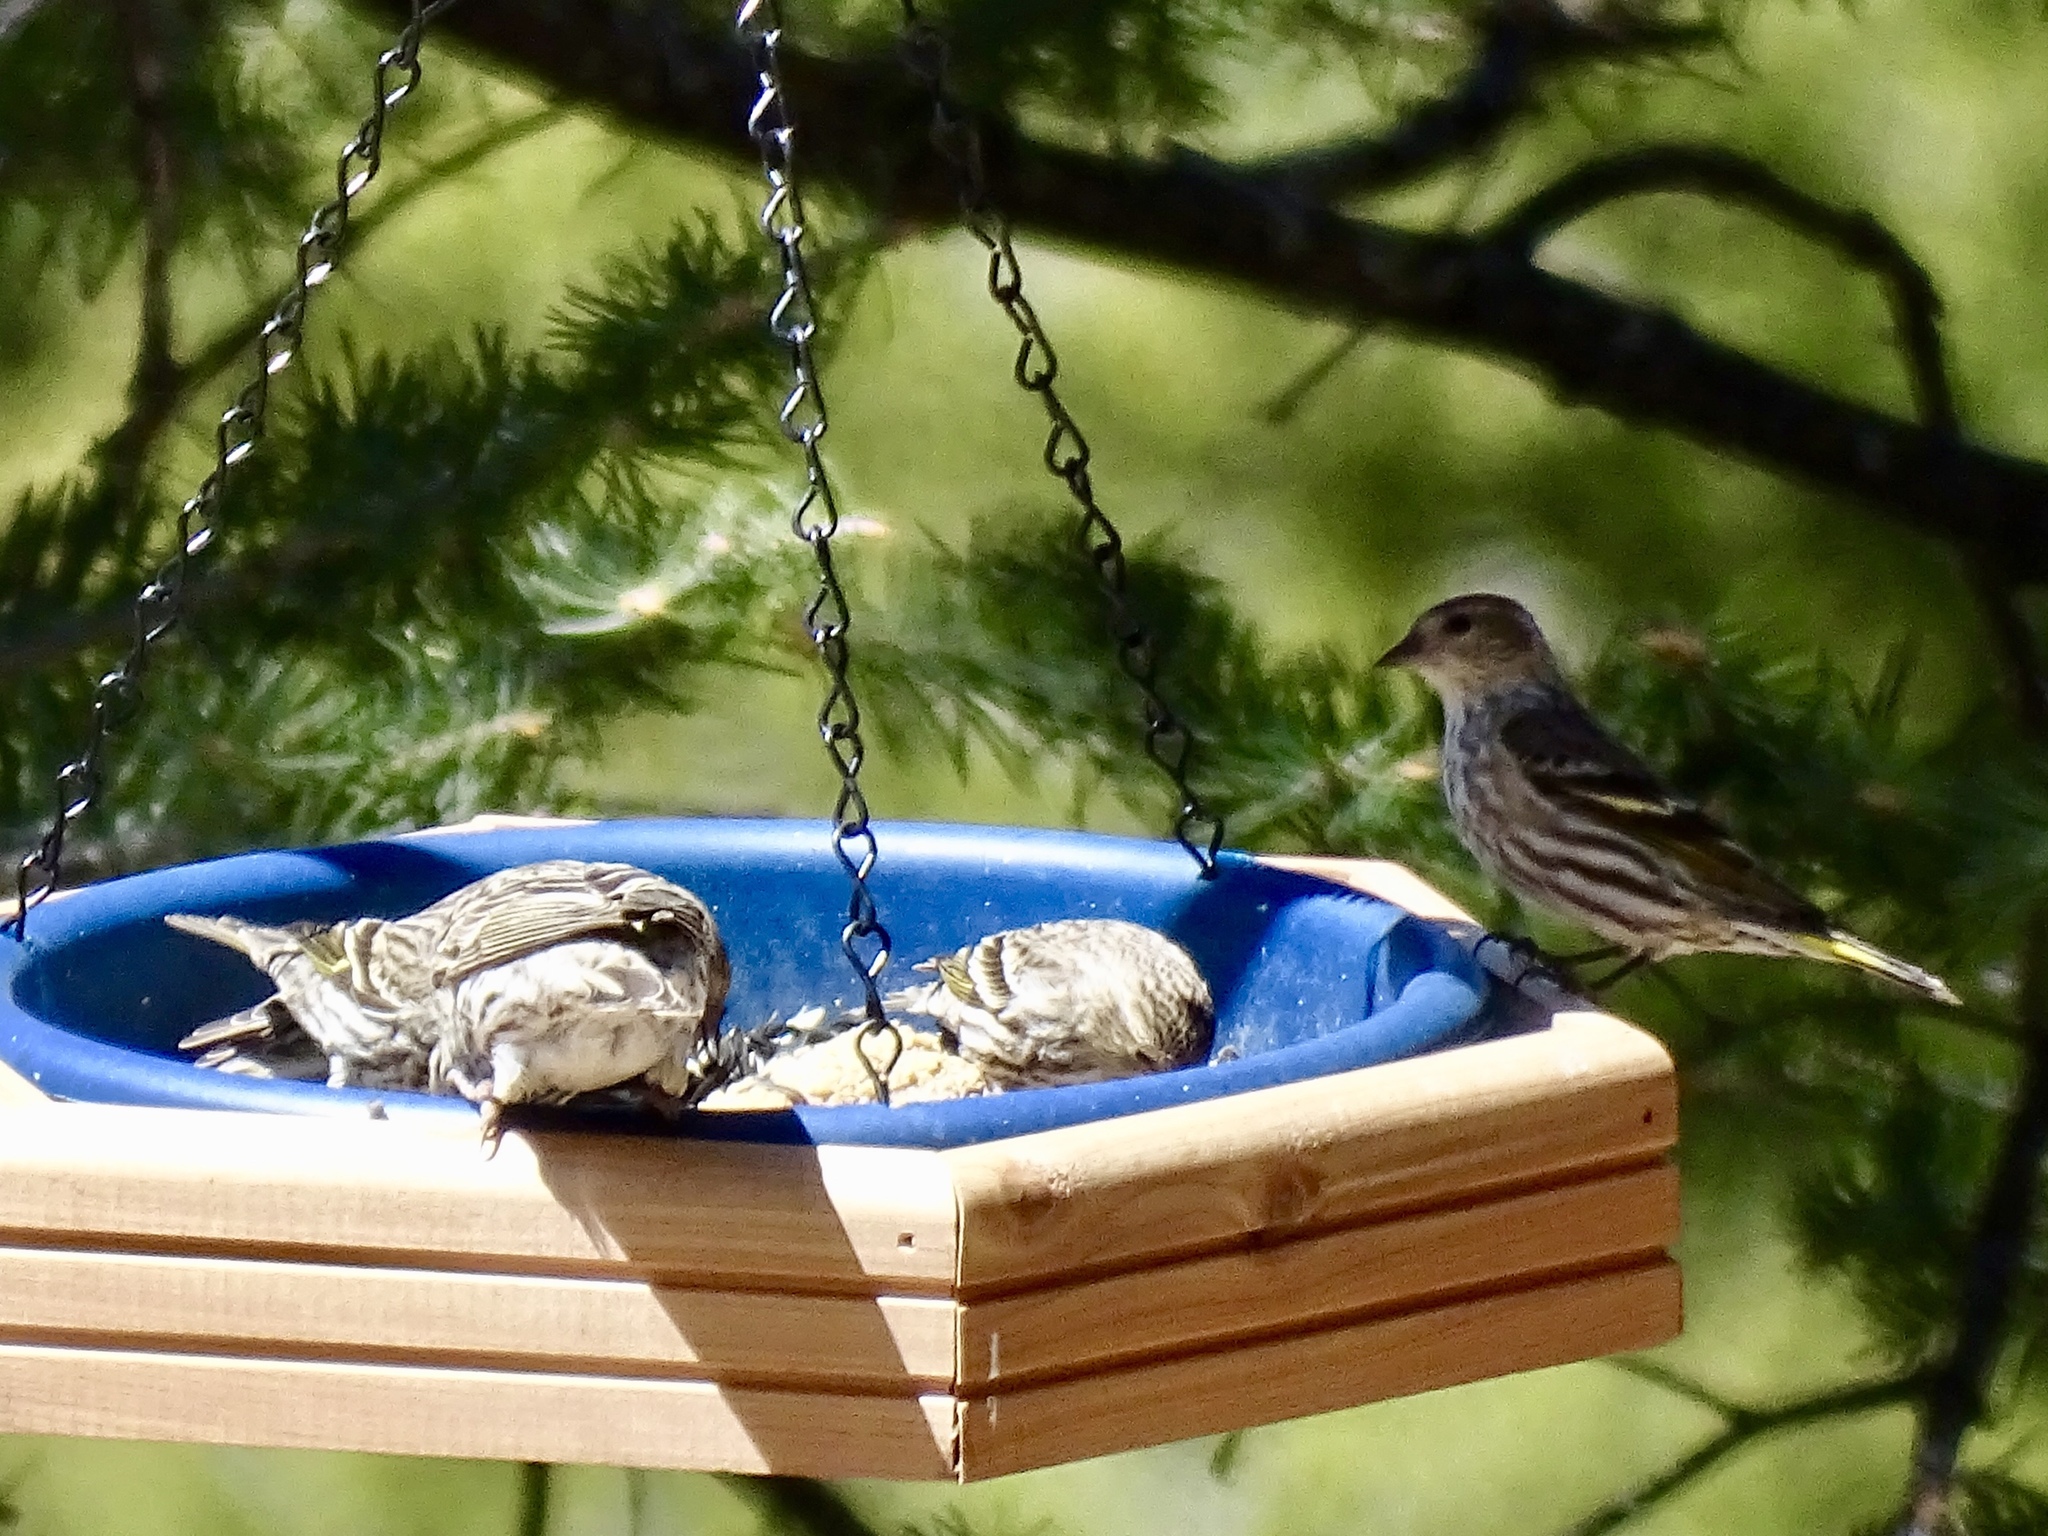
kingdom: Animalia
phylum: Chordata
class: Aves
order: Passeriformes
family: Fringillidae
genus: Spinus
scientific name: Spinus pinus
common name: Pine siskin
